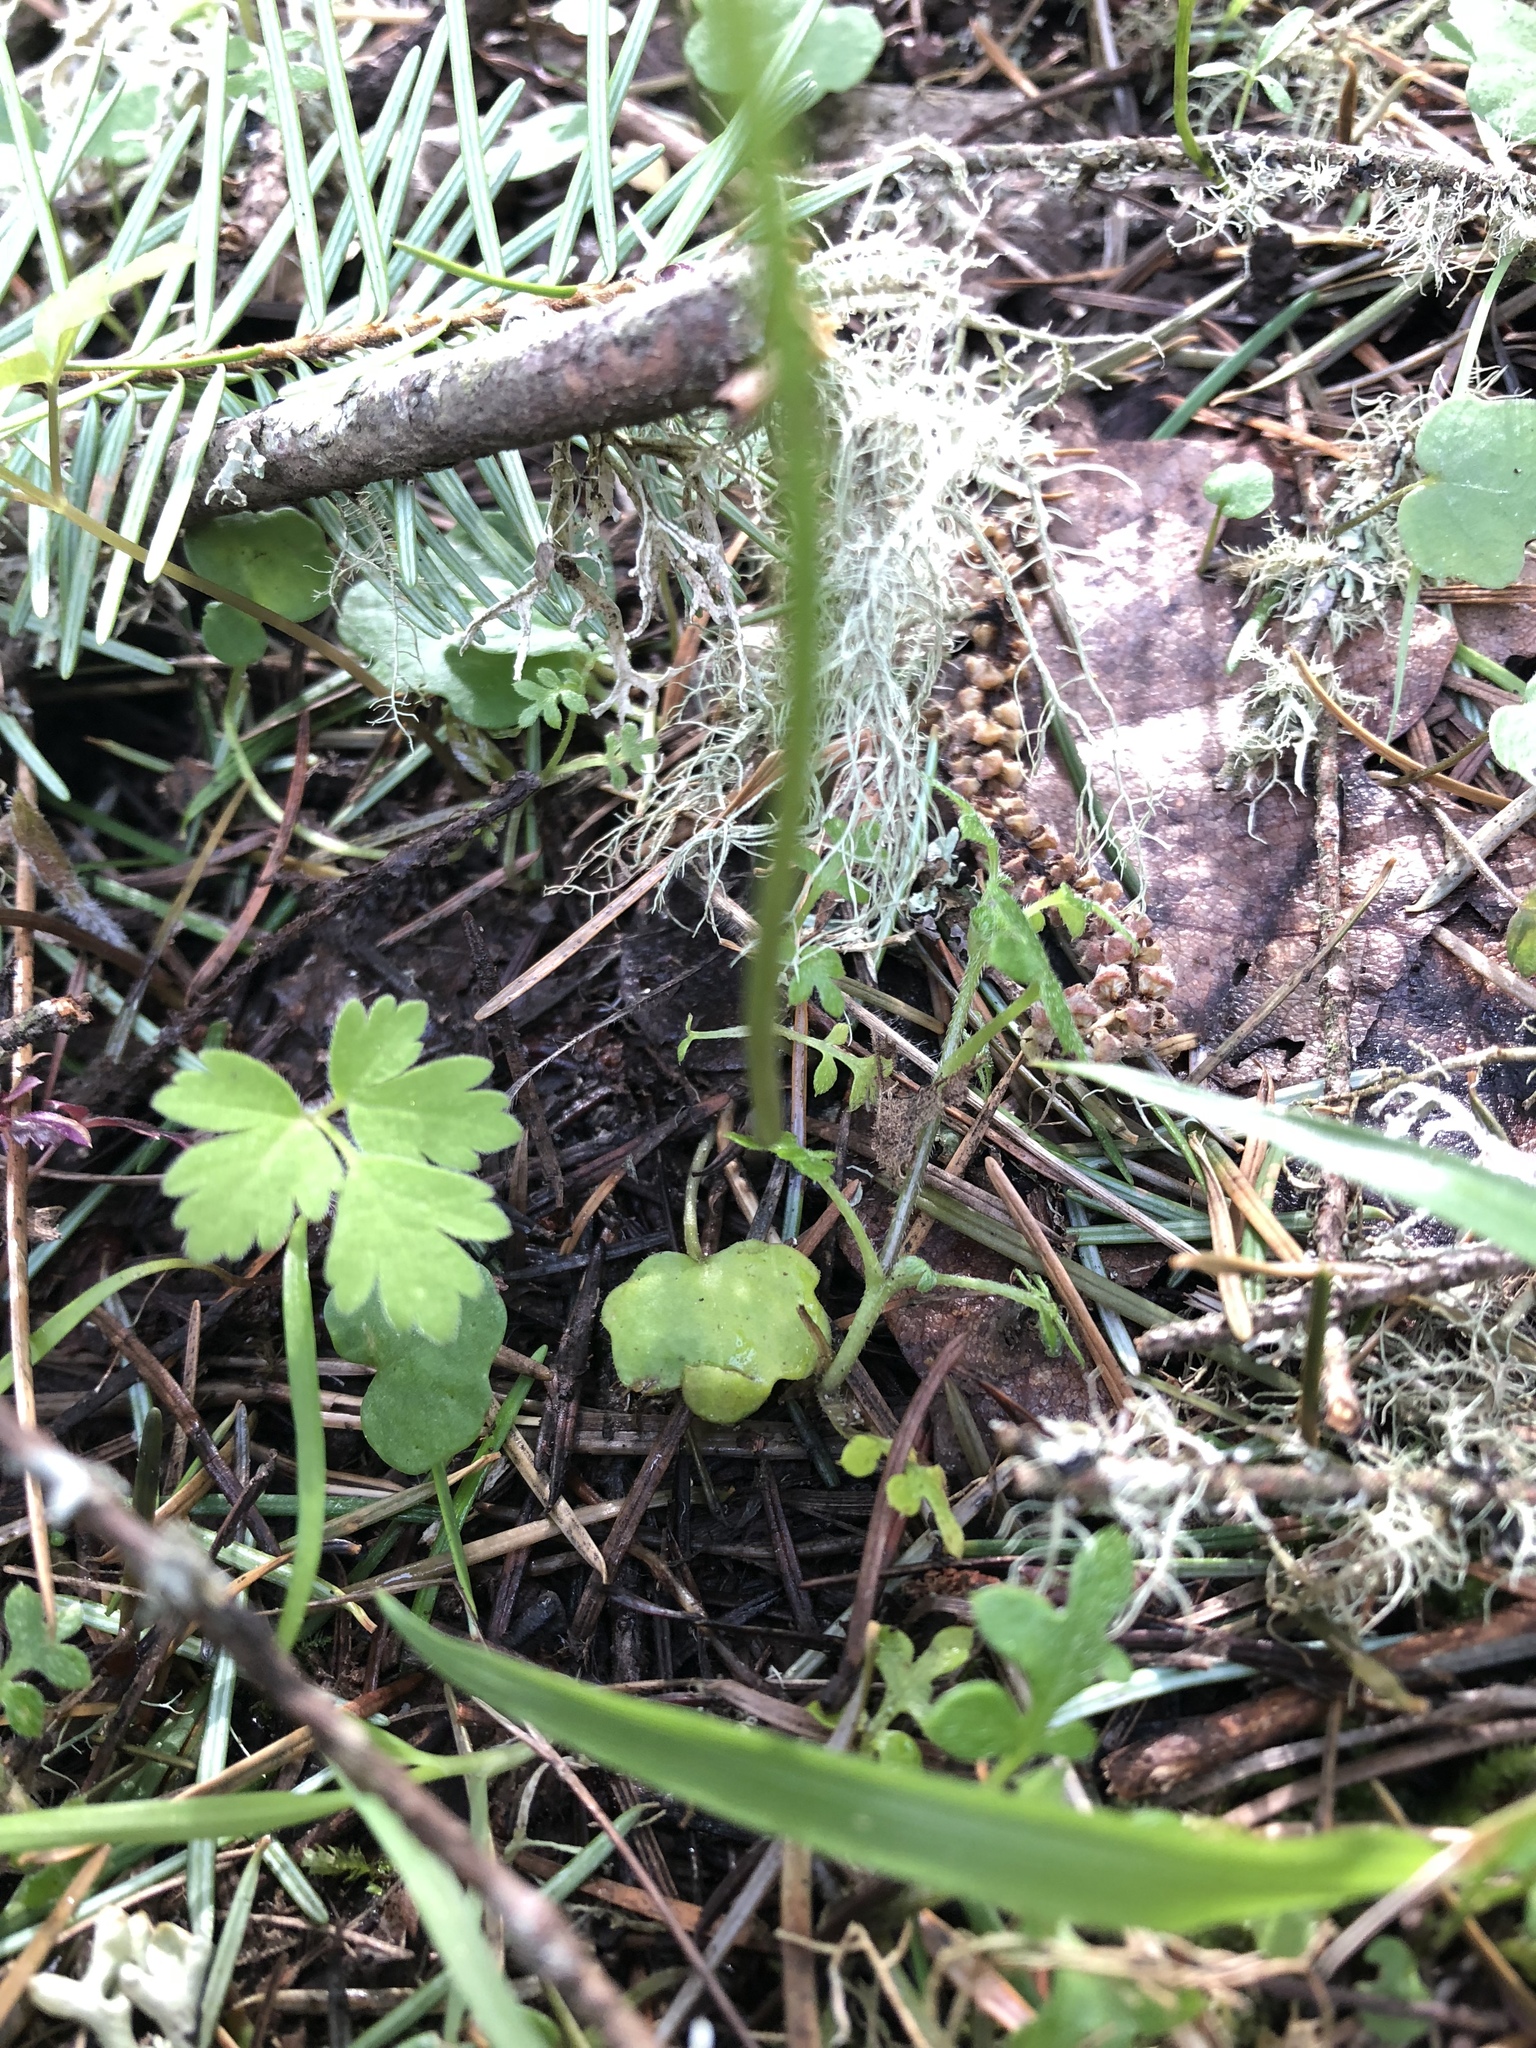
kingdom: Plantae
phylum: Tracheophyta
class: Magnoliopsida
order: Brassicales
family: Brassicaceae
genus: Cardamine
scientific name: Cardamine nuttallii
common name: Nuttall's toothwort
